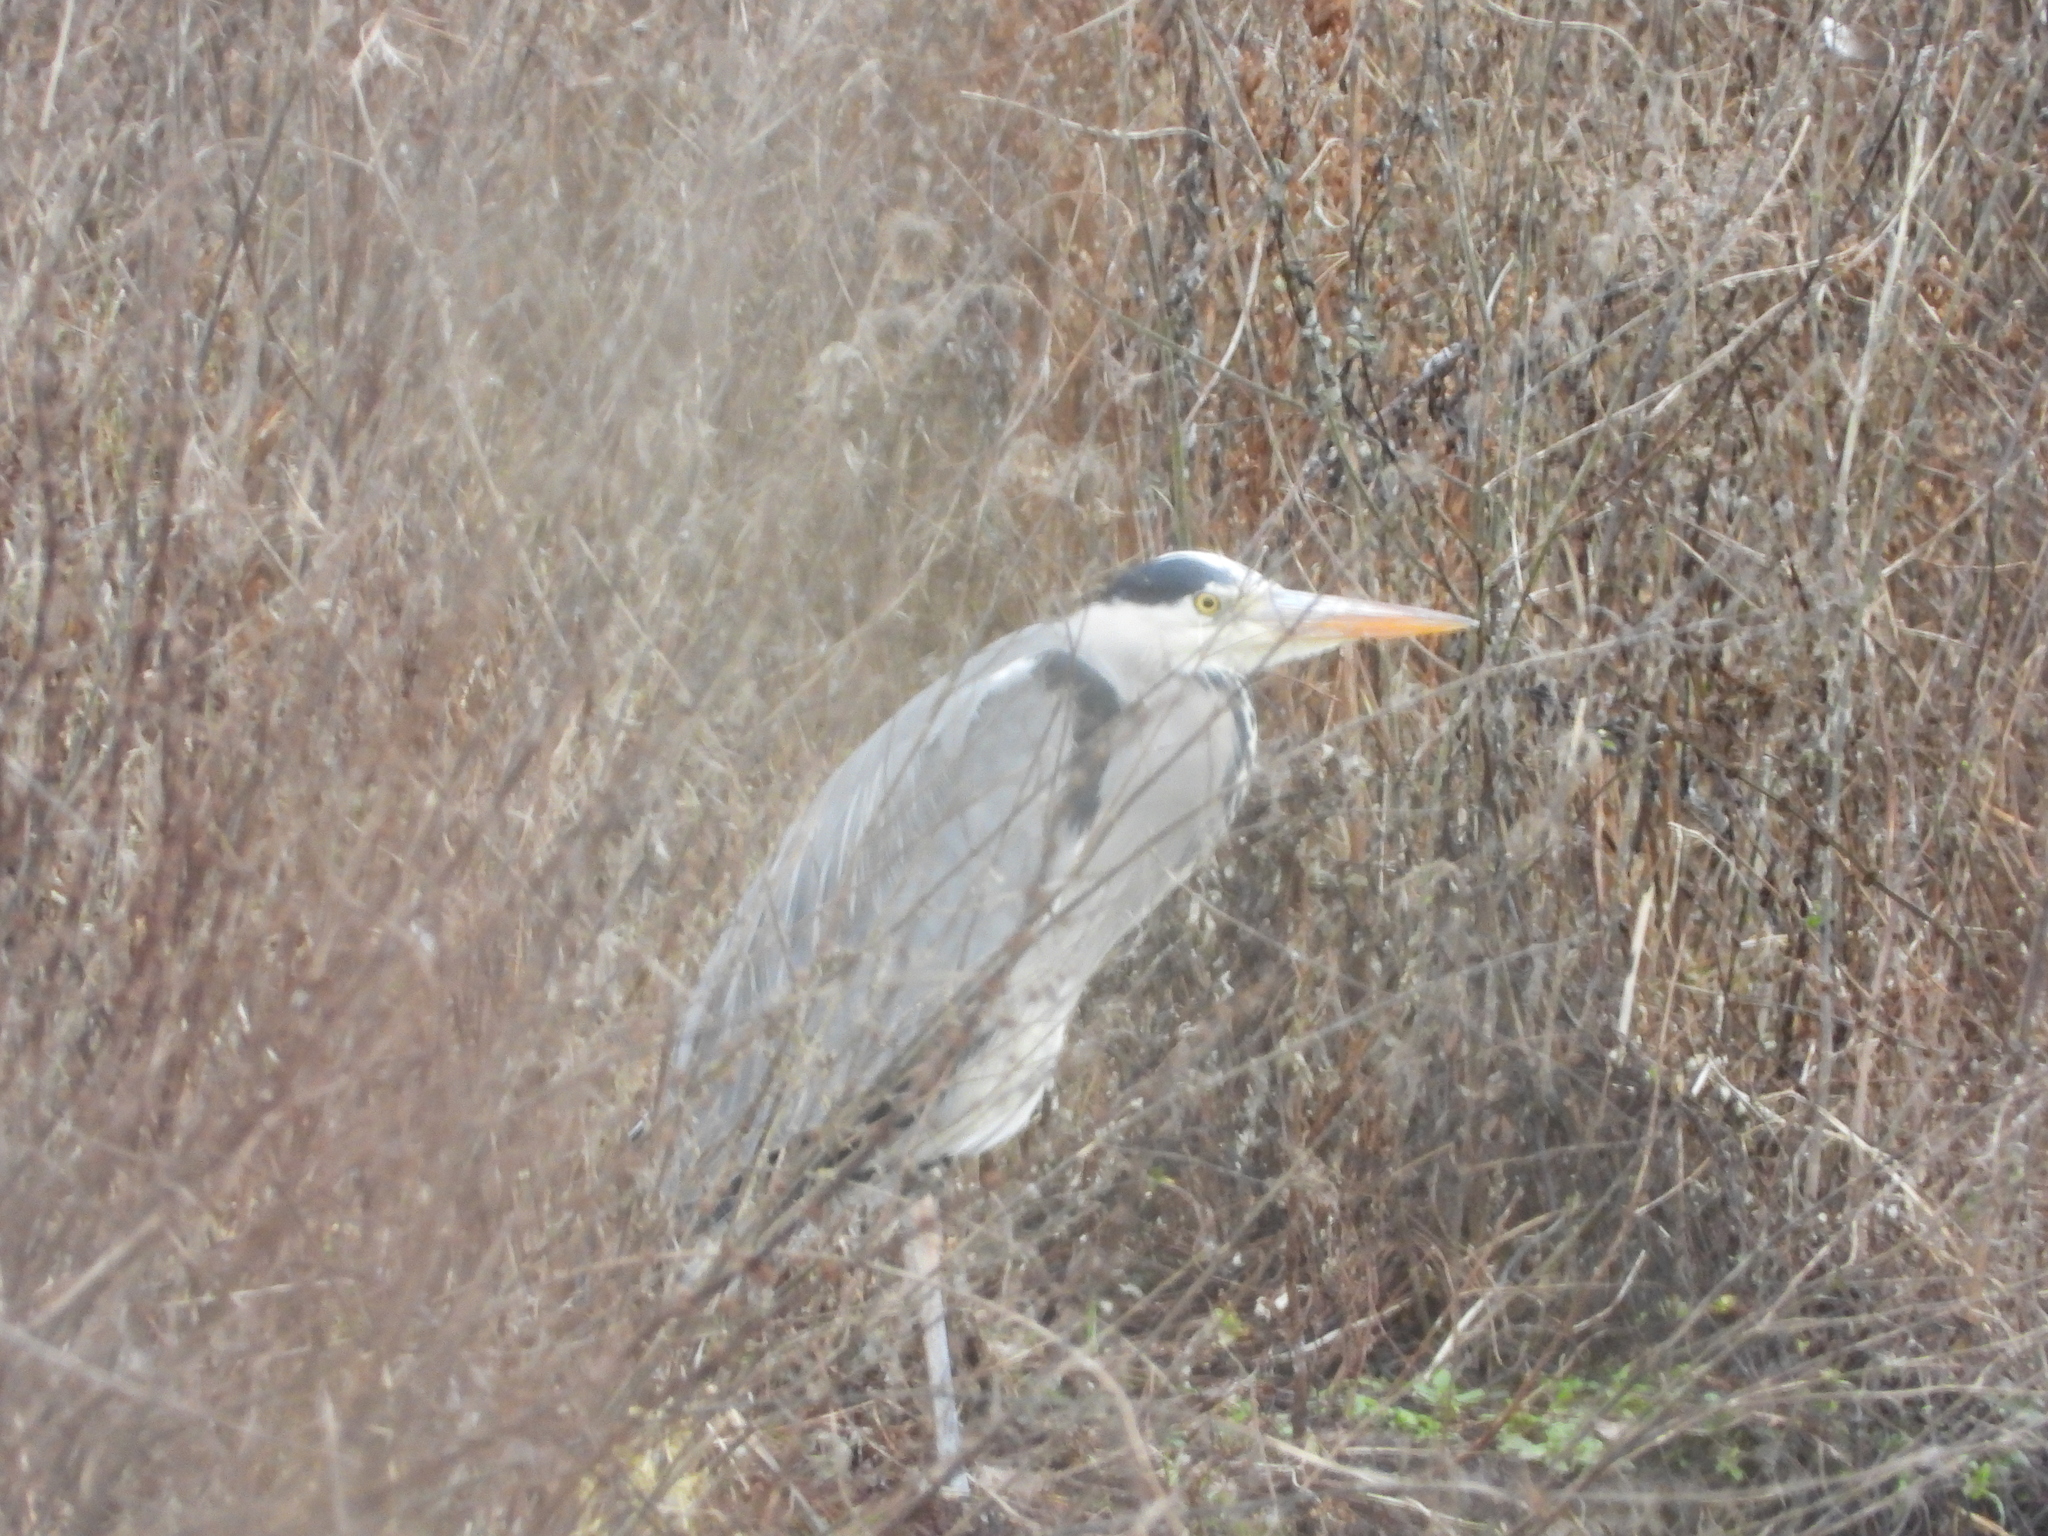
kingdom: Animalia
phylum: Chordata
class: Aves
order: Pelecaniformes
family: Ardeidae
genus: Ardea
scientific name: Ardea cinerea
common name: Grey heron
